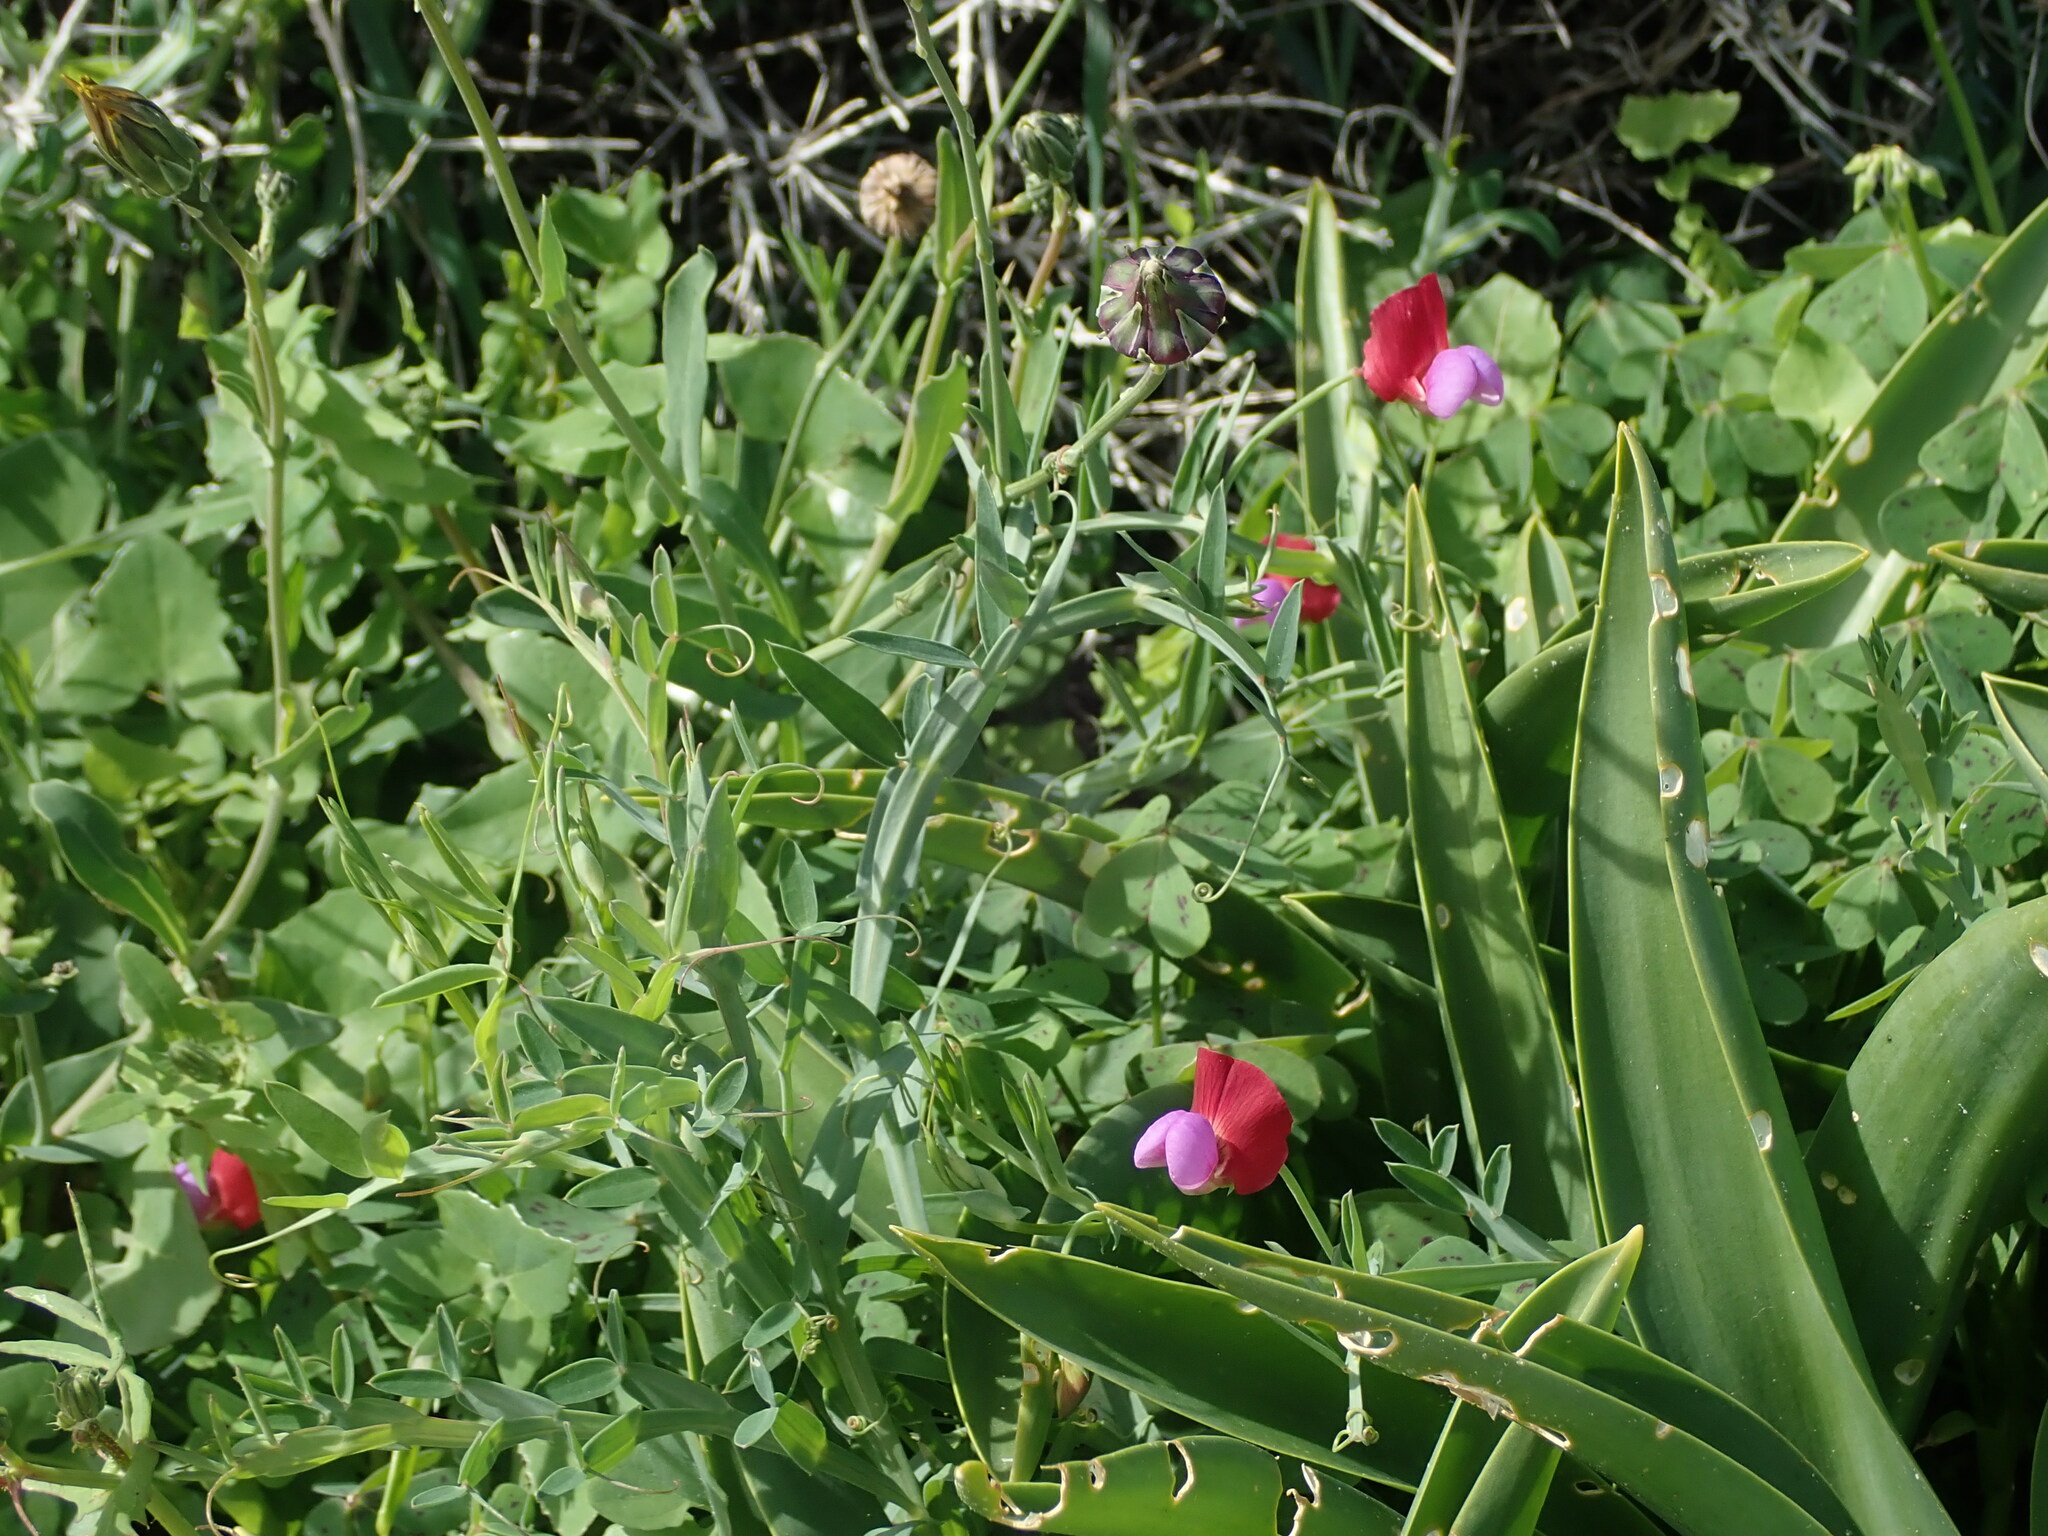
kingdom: Plantae
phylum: Tracheophyta
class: Magnoliopsida
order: Fabales
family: Fabaceae
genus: Lathyrus
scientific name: Lathyrus clymenum
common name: Spanish vetchling
